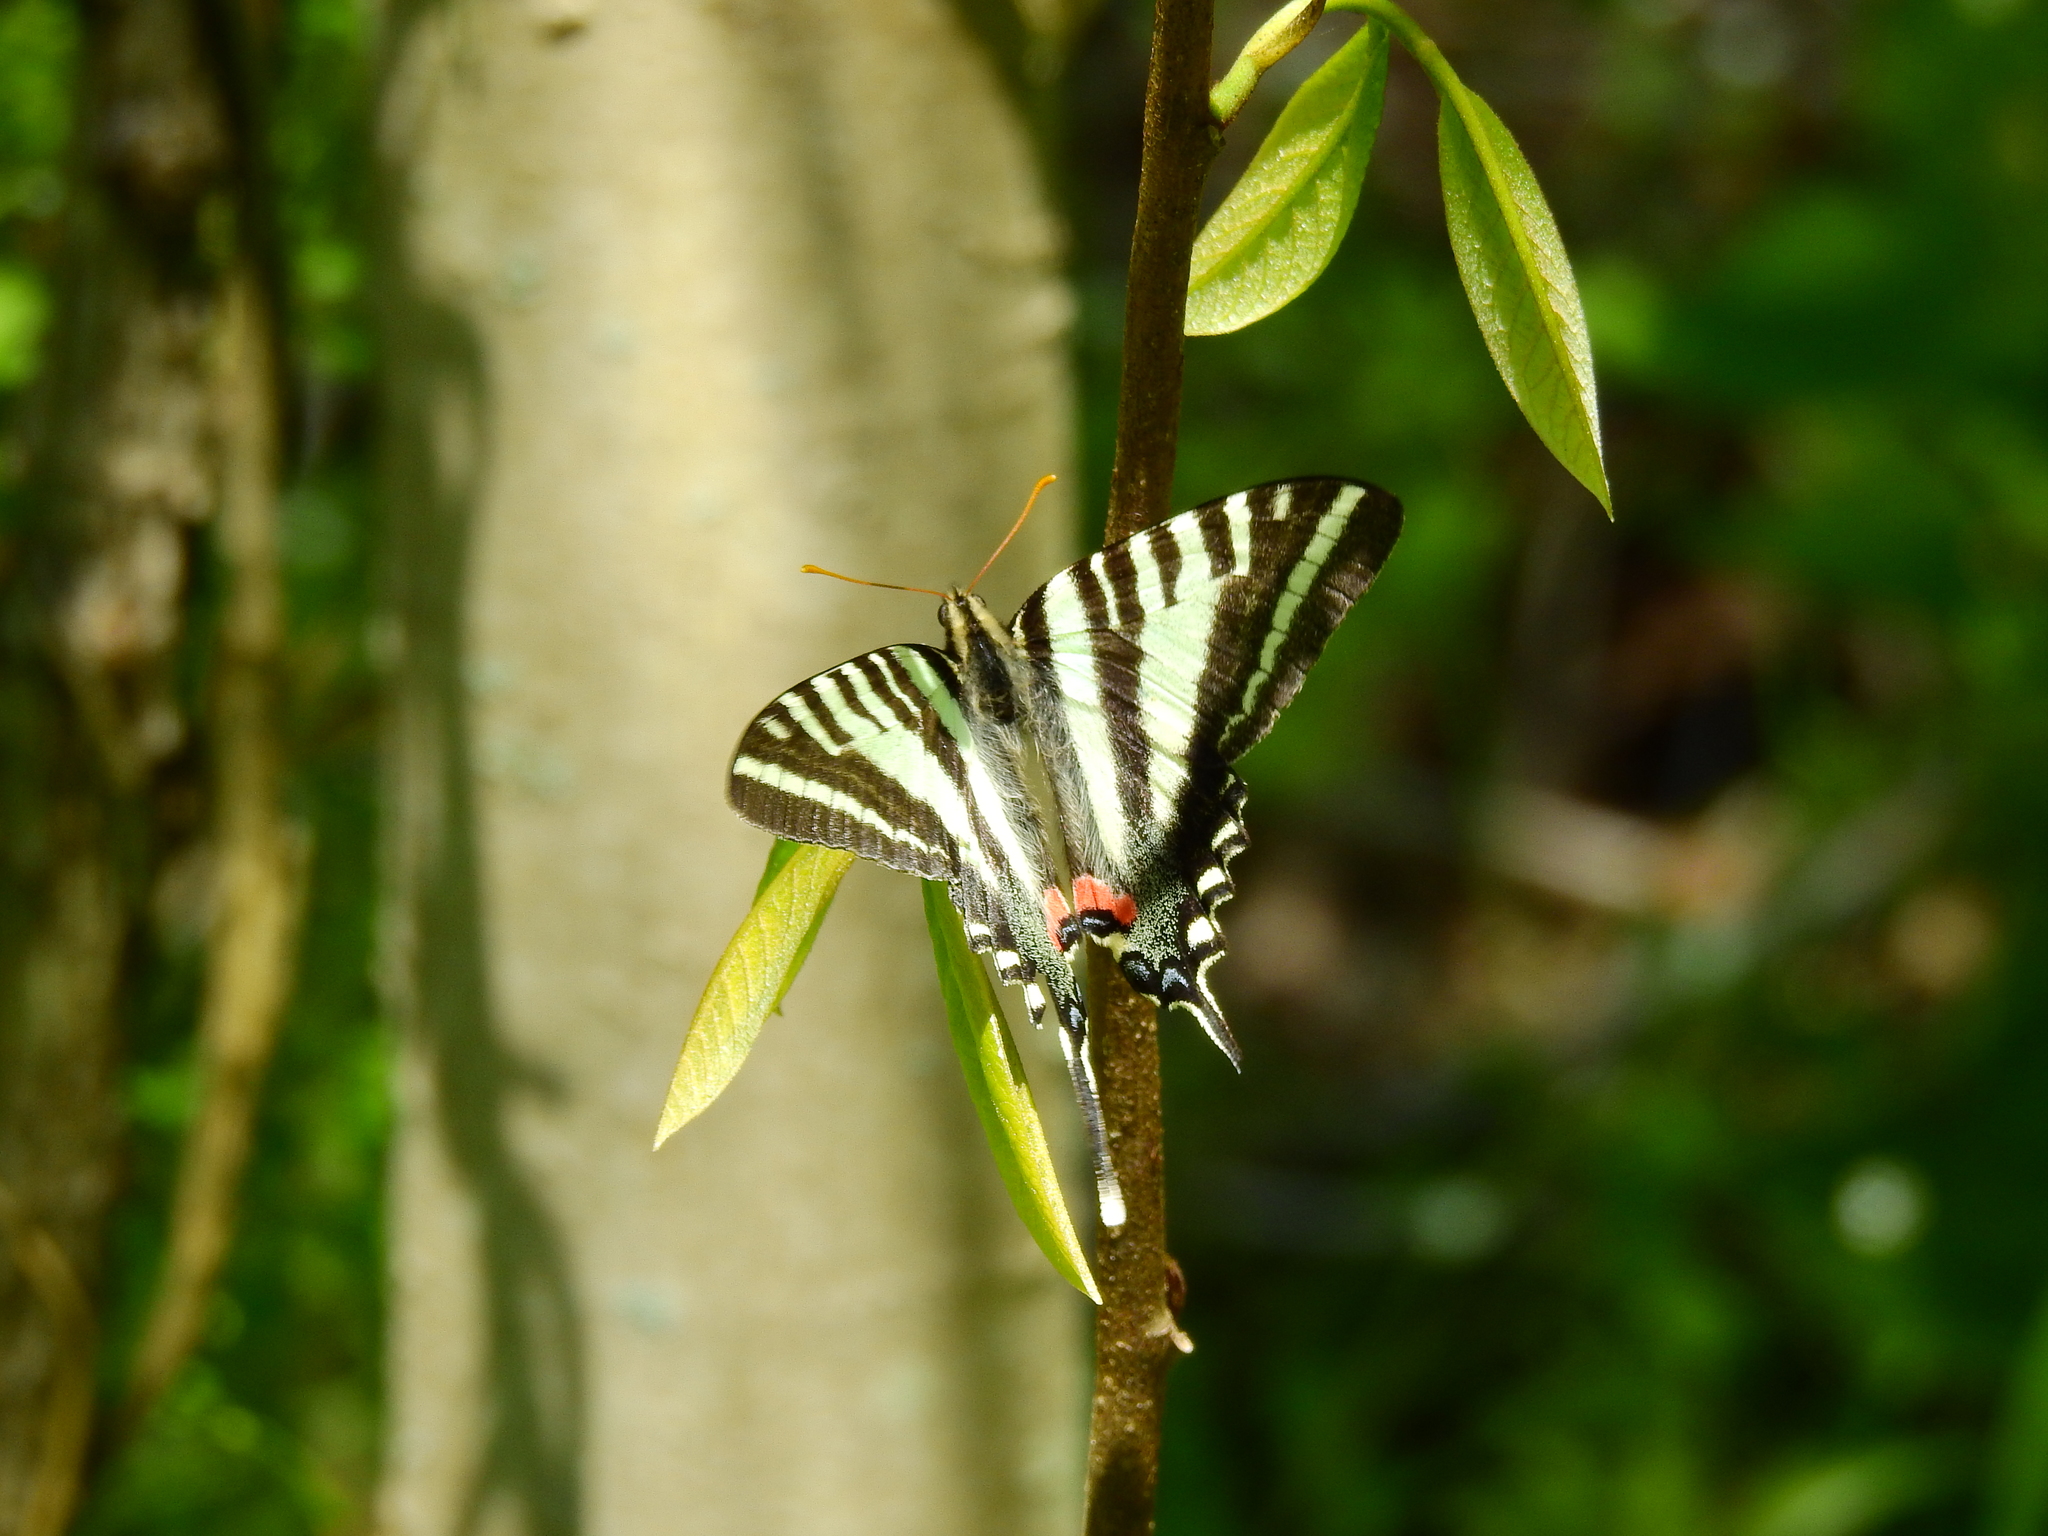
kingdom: Animalia
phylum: Arthropoda
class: Insecta
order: Lepidoptera
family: Papilionidae
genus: Protographium
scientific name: Protographium marcellus
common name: Zebra swallowtail
